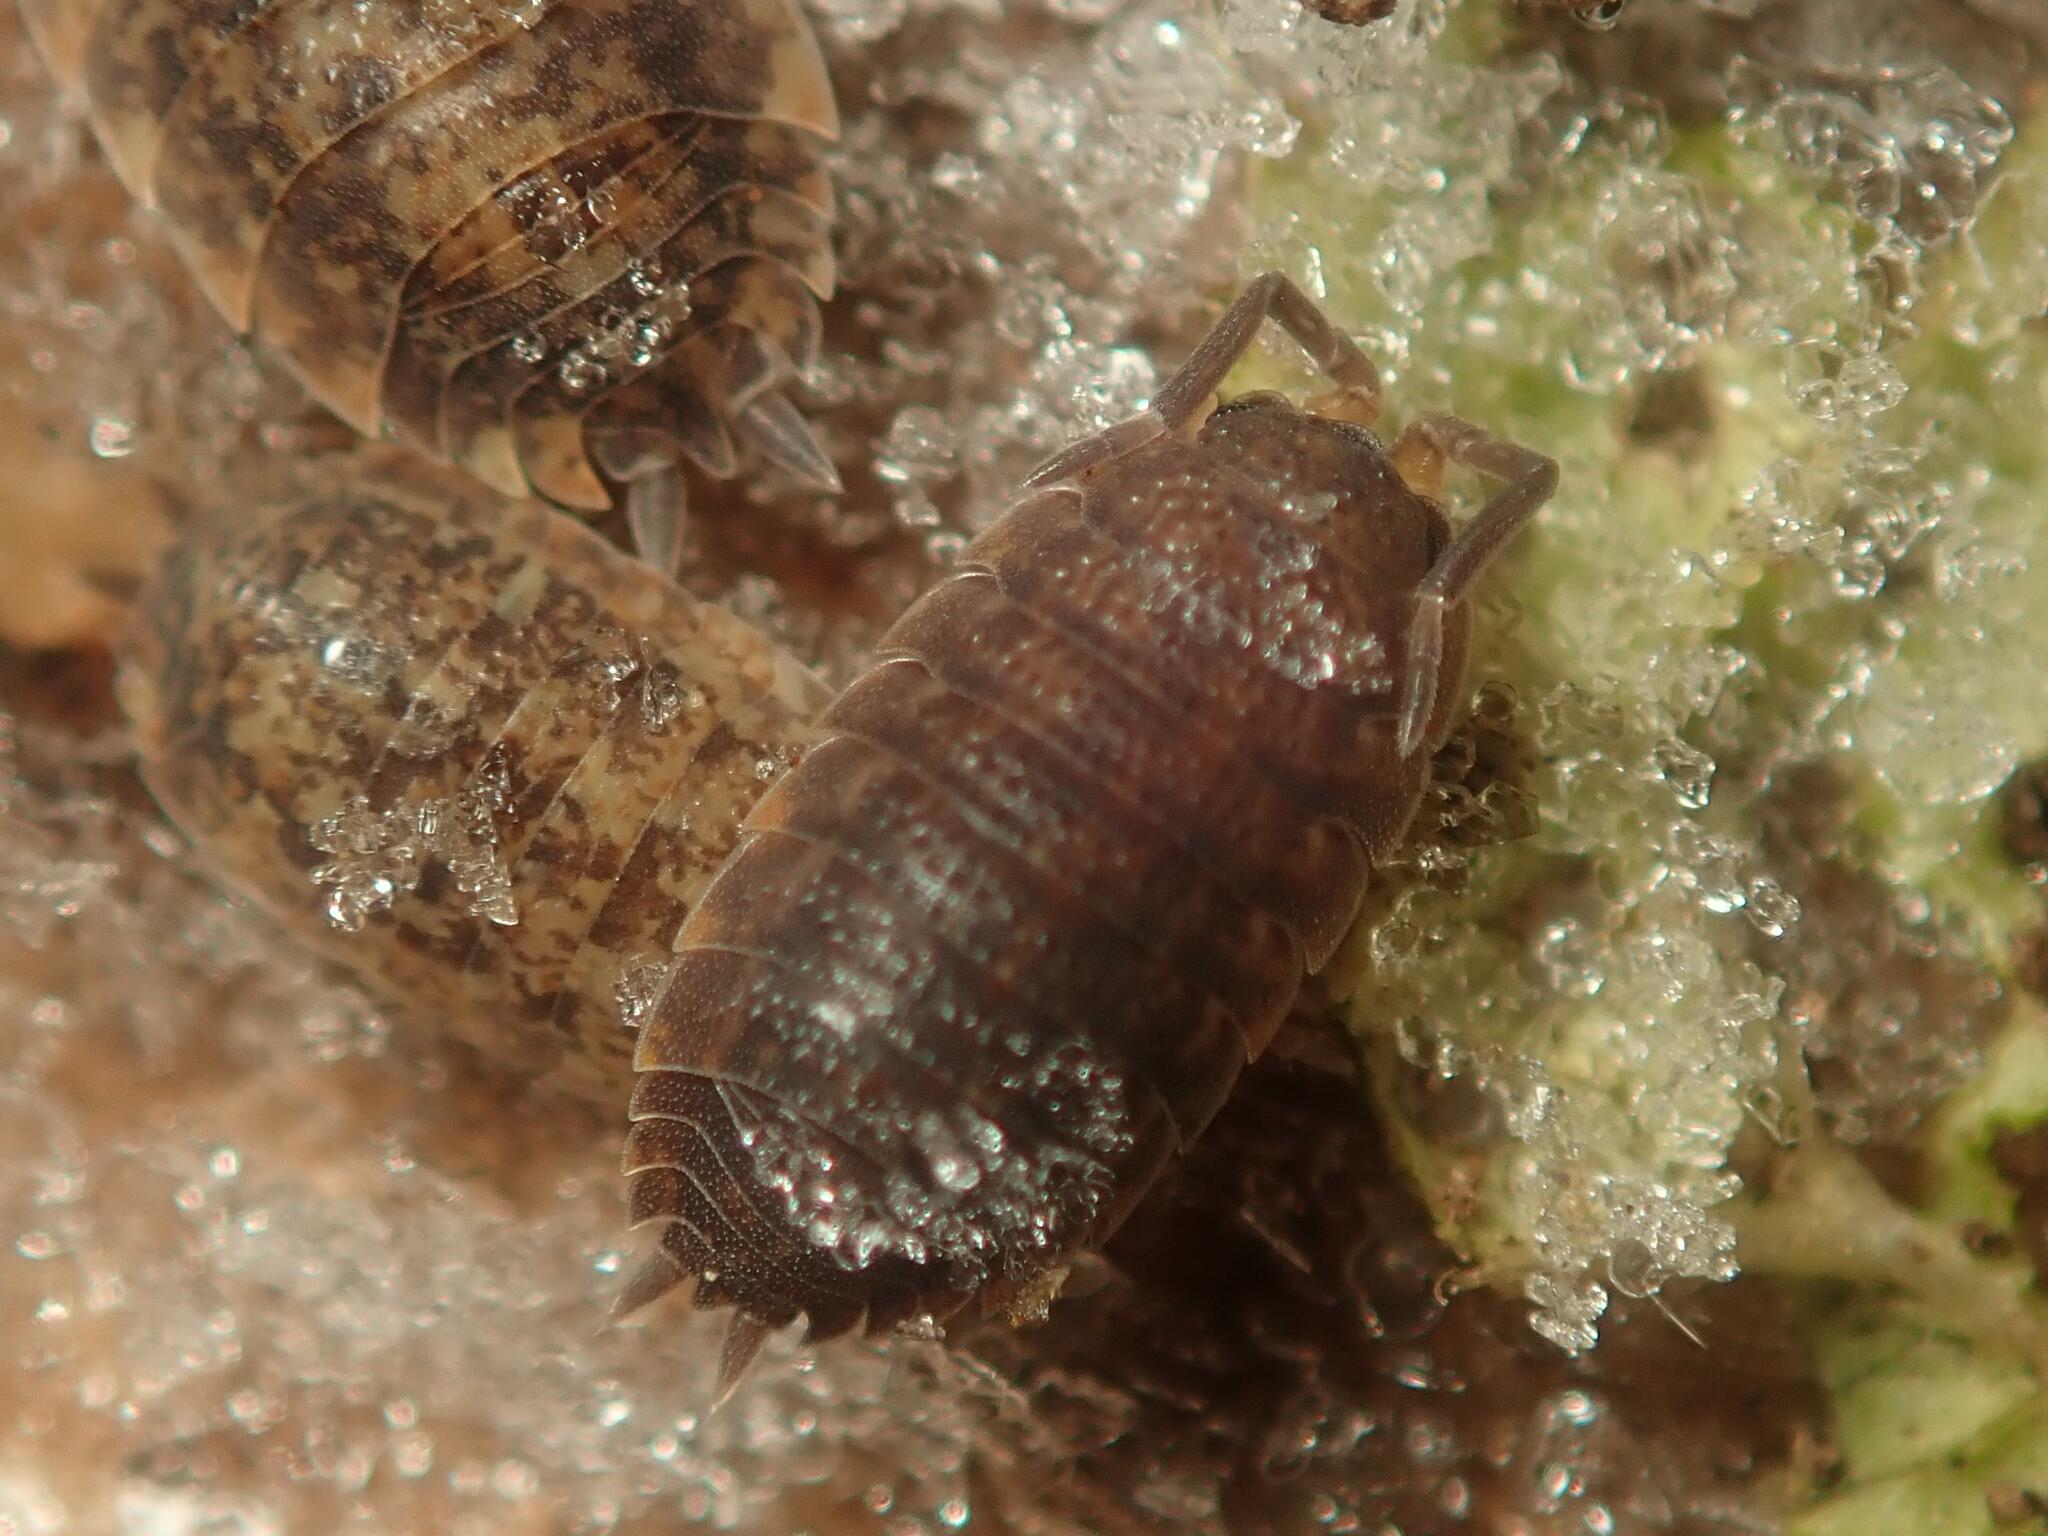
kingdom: Animalia
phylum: Arthropoda
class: Malacostraca
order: Isopoda
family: Porcellionidae
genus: Porcellio
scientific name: Porcellio scaber
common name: Common rough woodlouse
